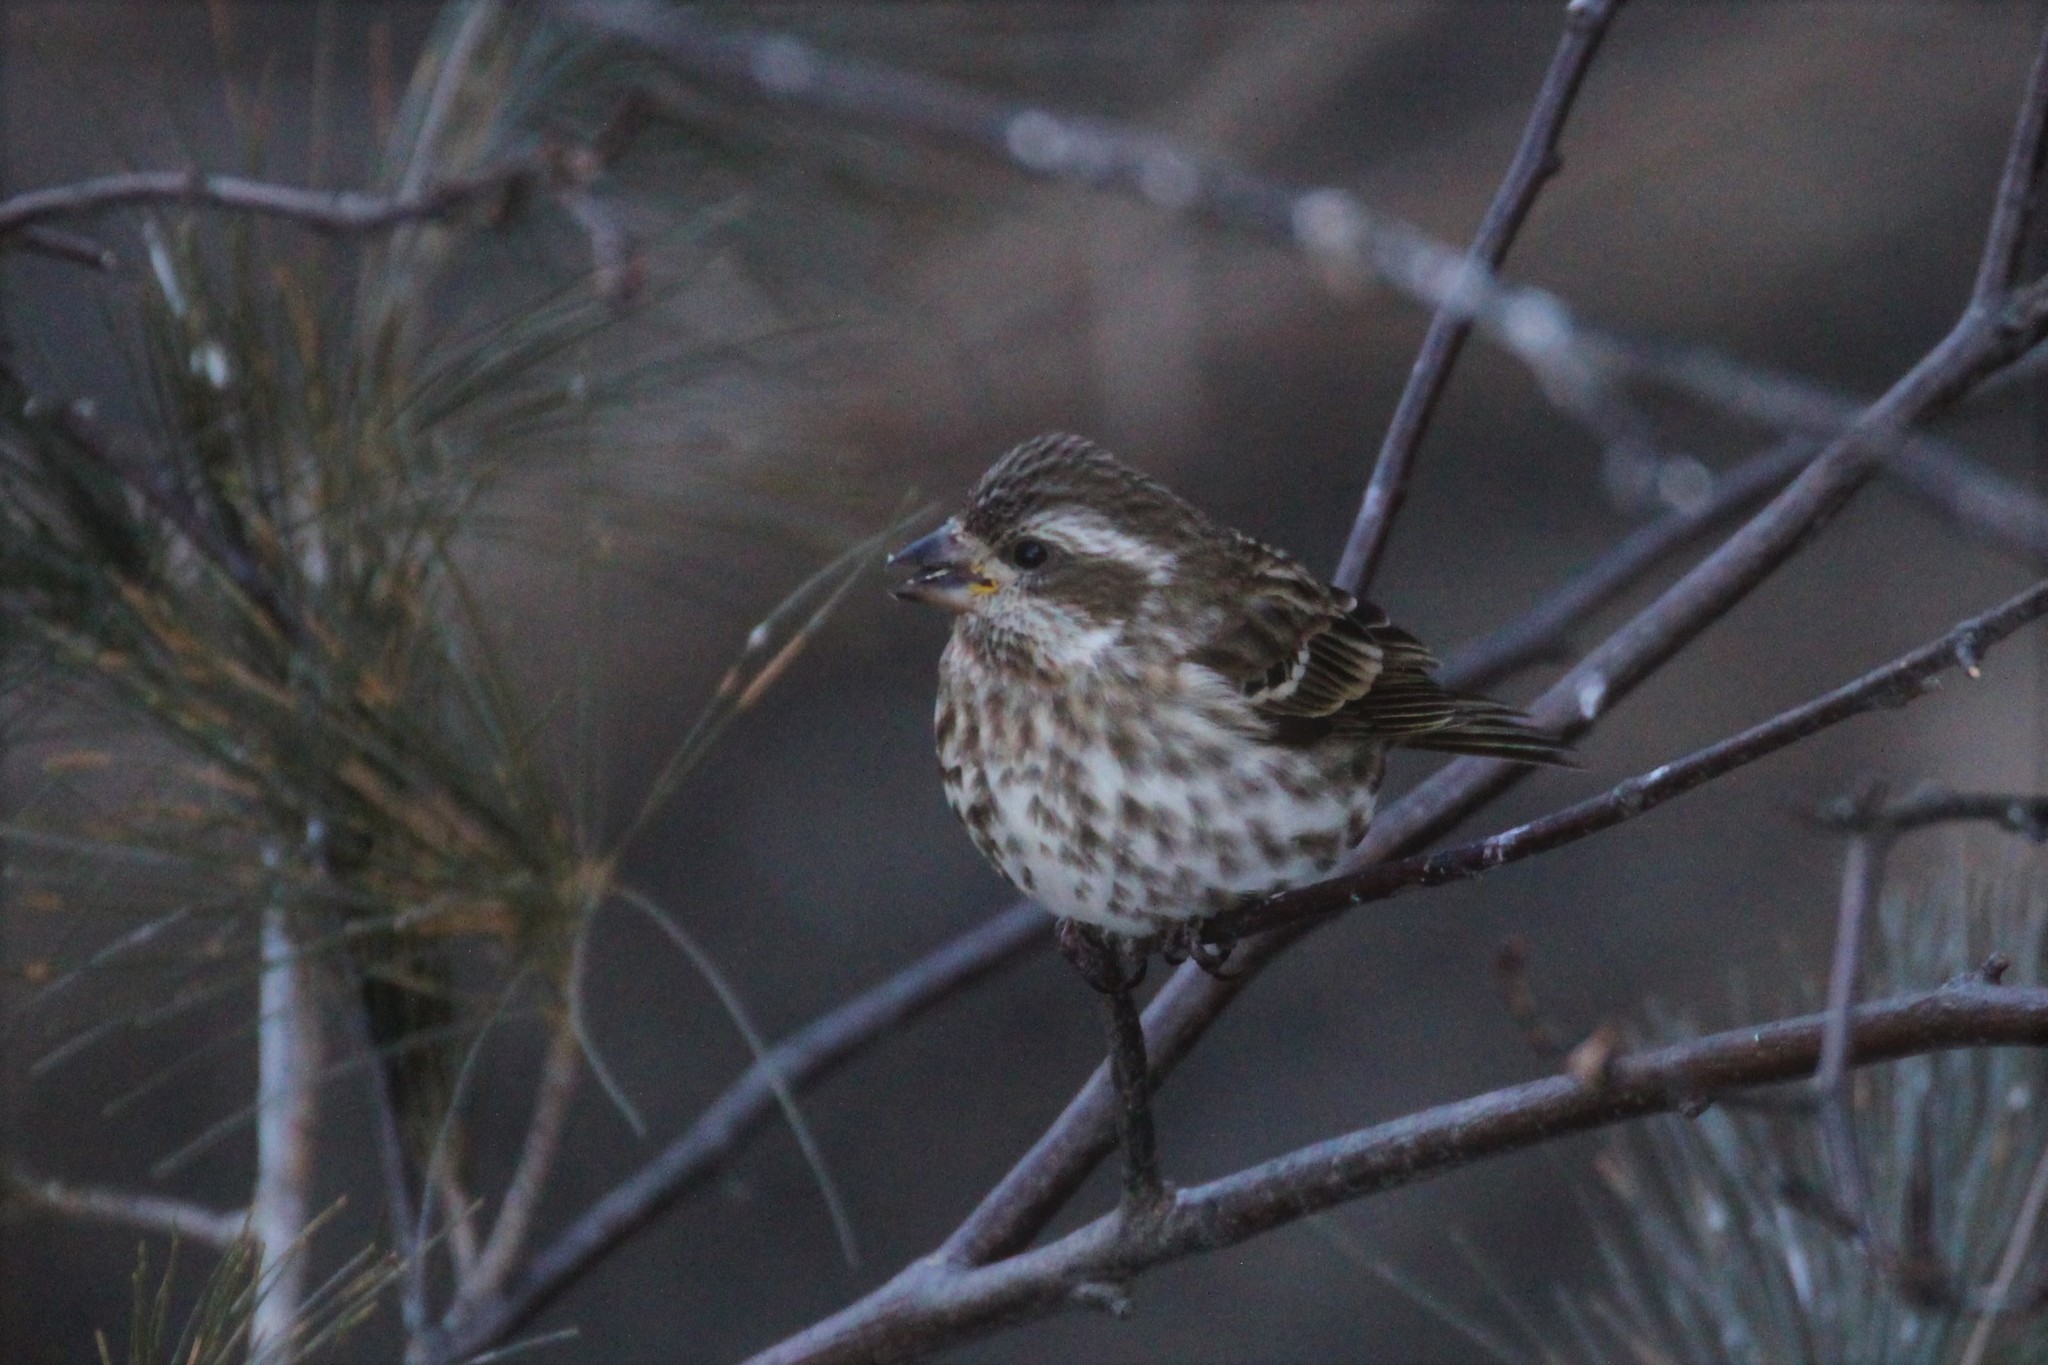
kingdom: Animalia
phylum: Chordata
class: Aves
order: Passeriformes
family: Fringillidae
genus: Haemorhous
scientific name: Haemorhous purpureus
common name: Purple finch
